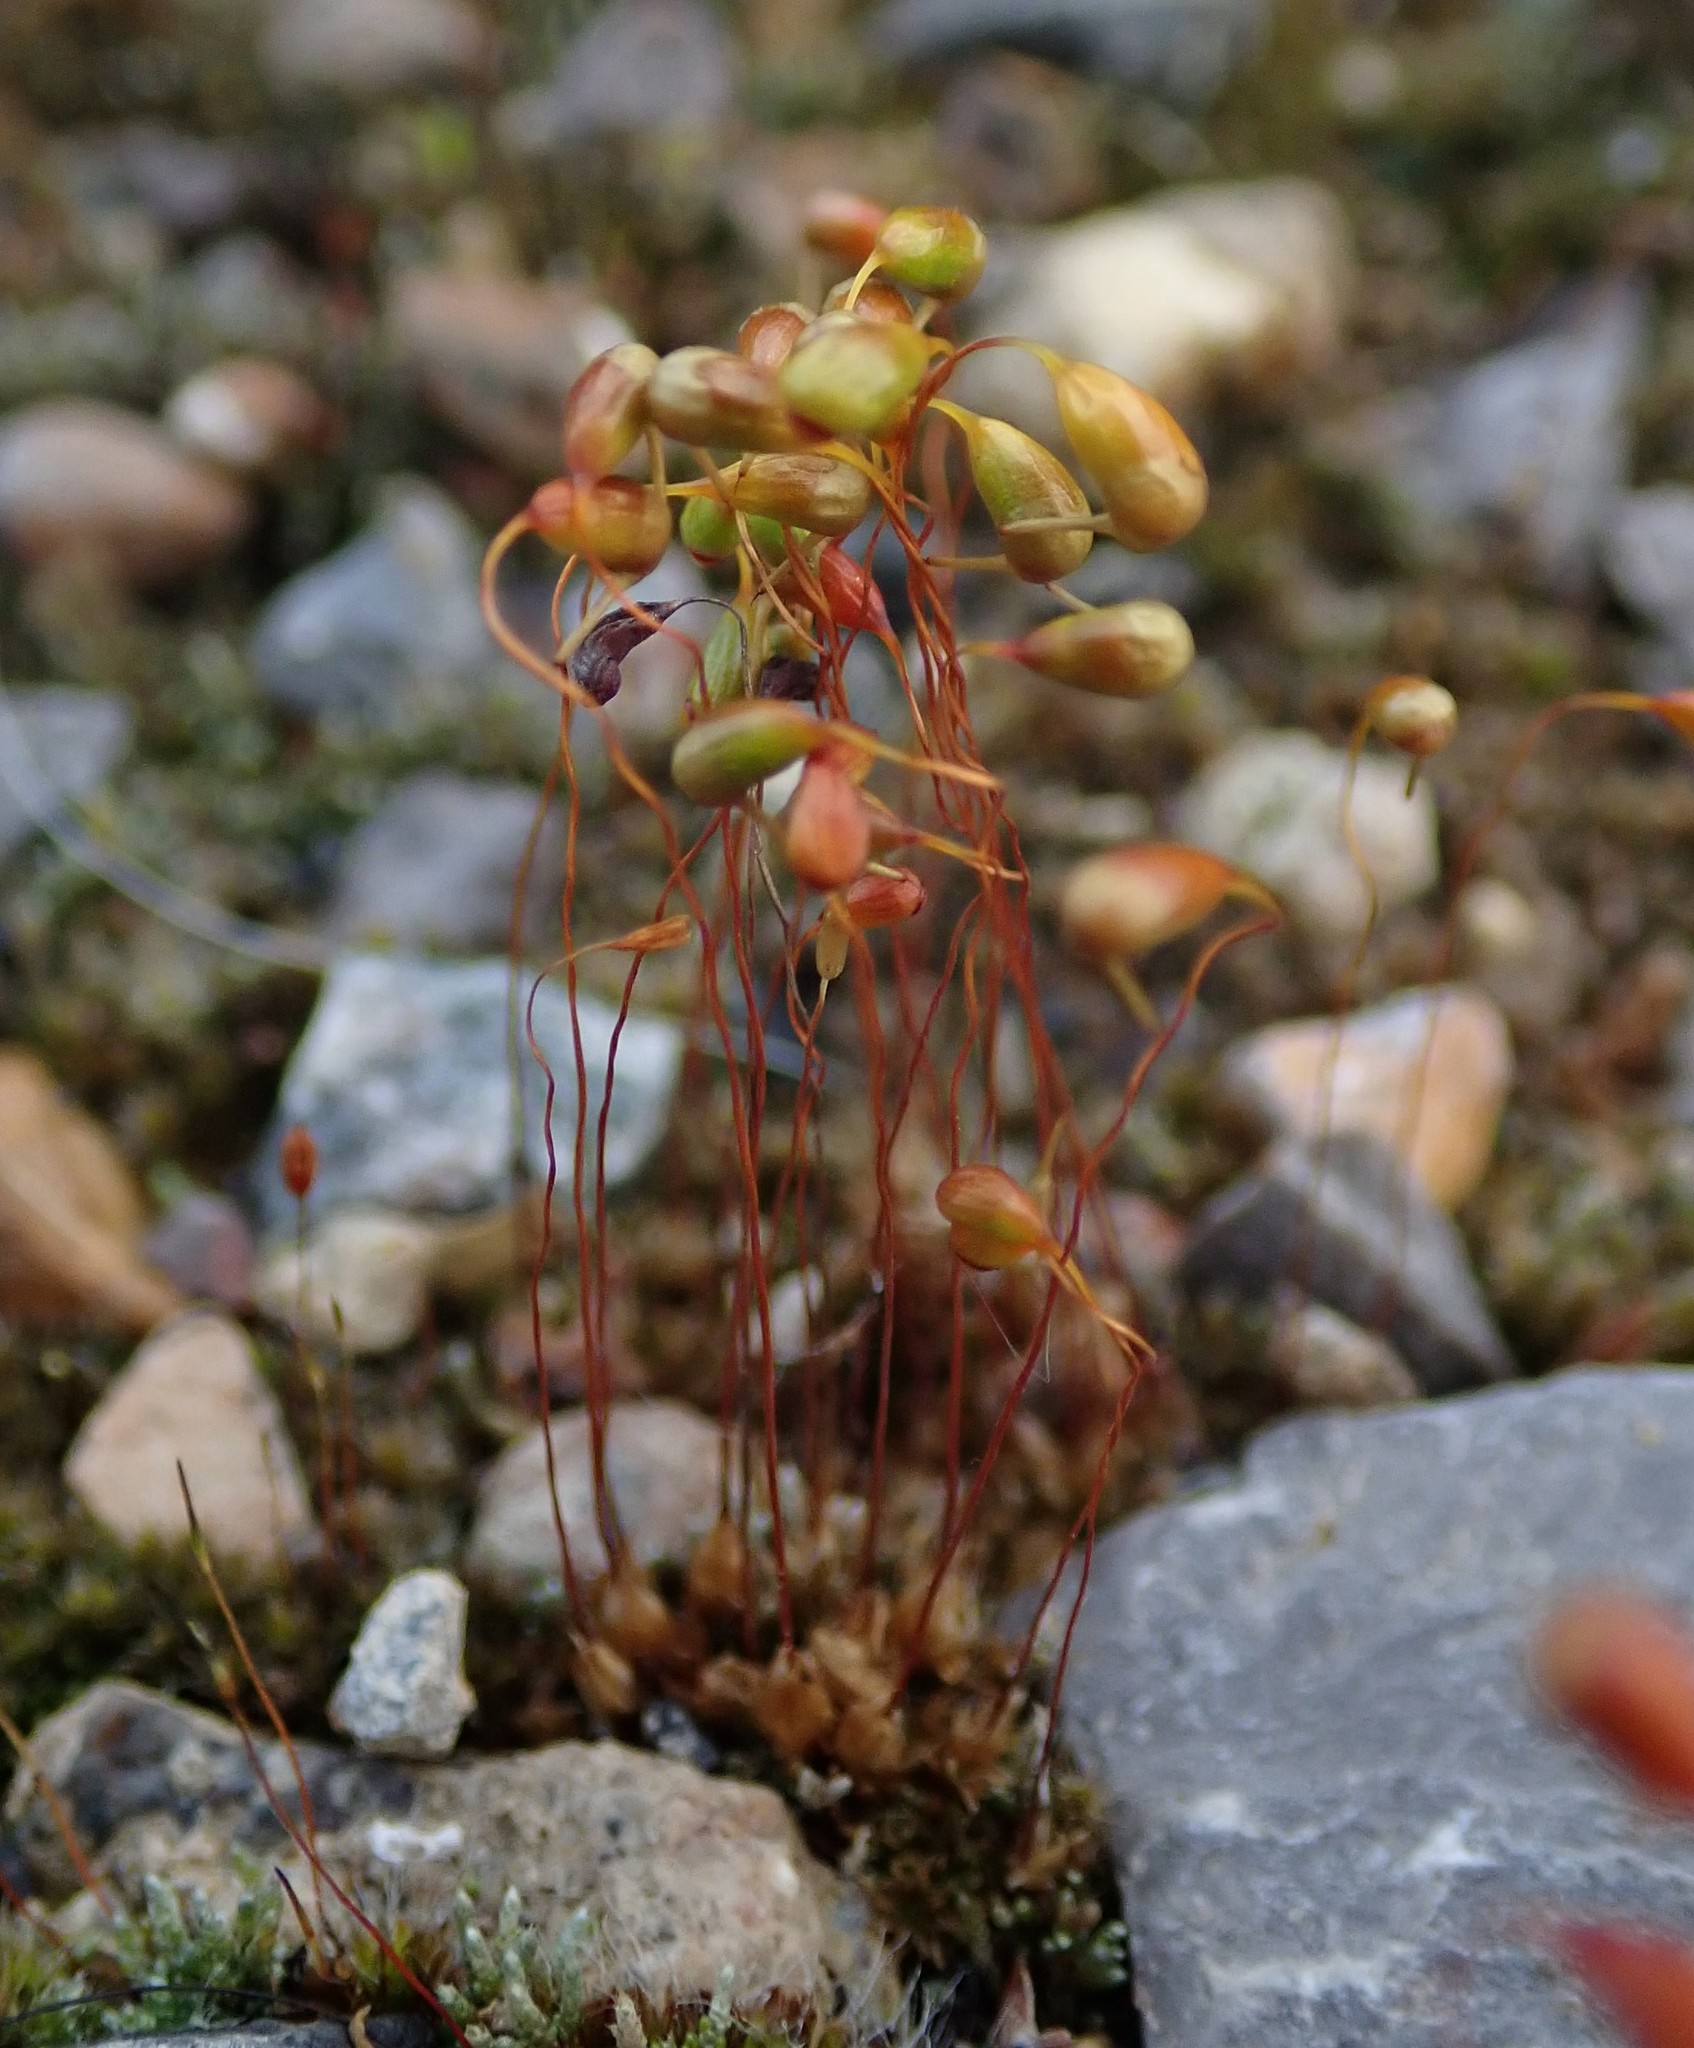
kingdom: Plantae
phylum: Bryophyta
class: Bryopsida
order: Funariales
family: Funariaceae
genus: Funaria
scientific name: Funaria hygrometrica
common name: Common cord moss
